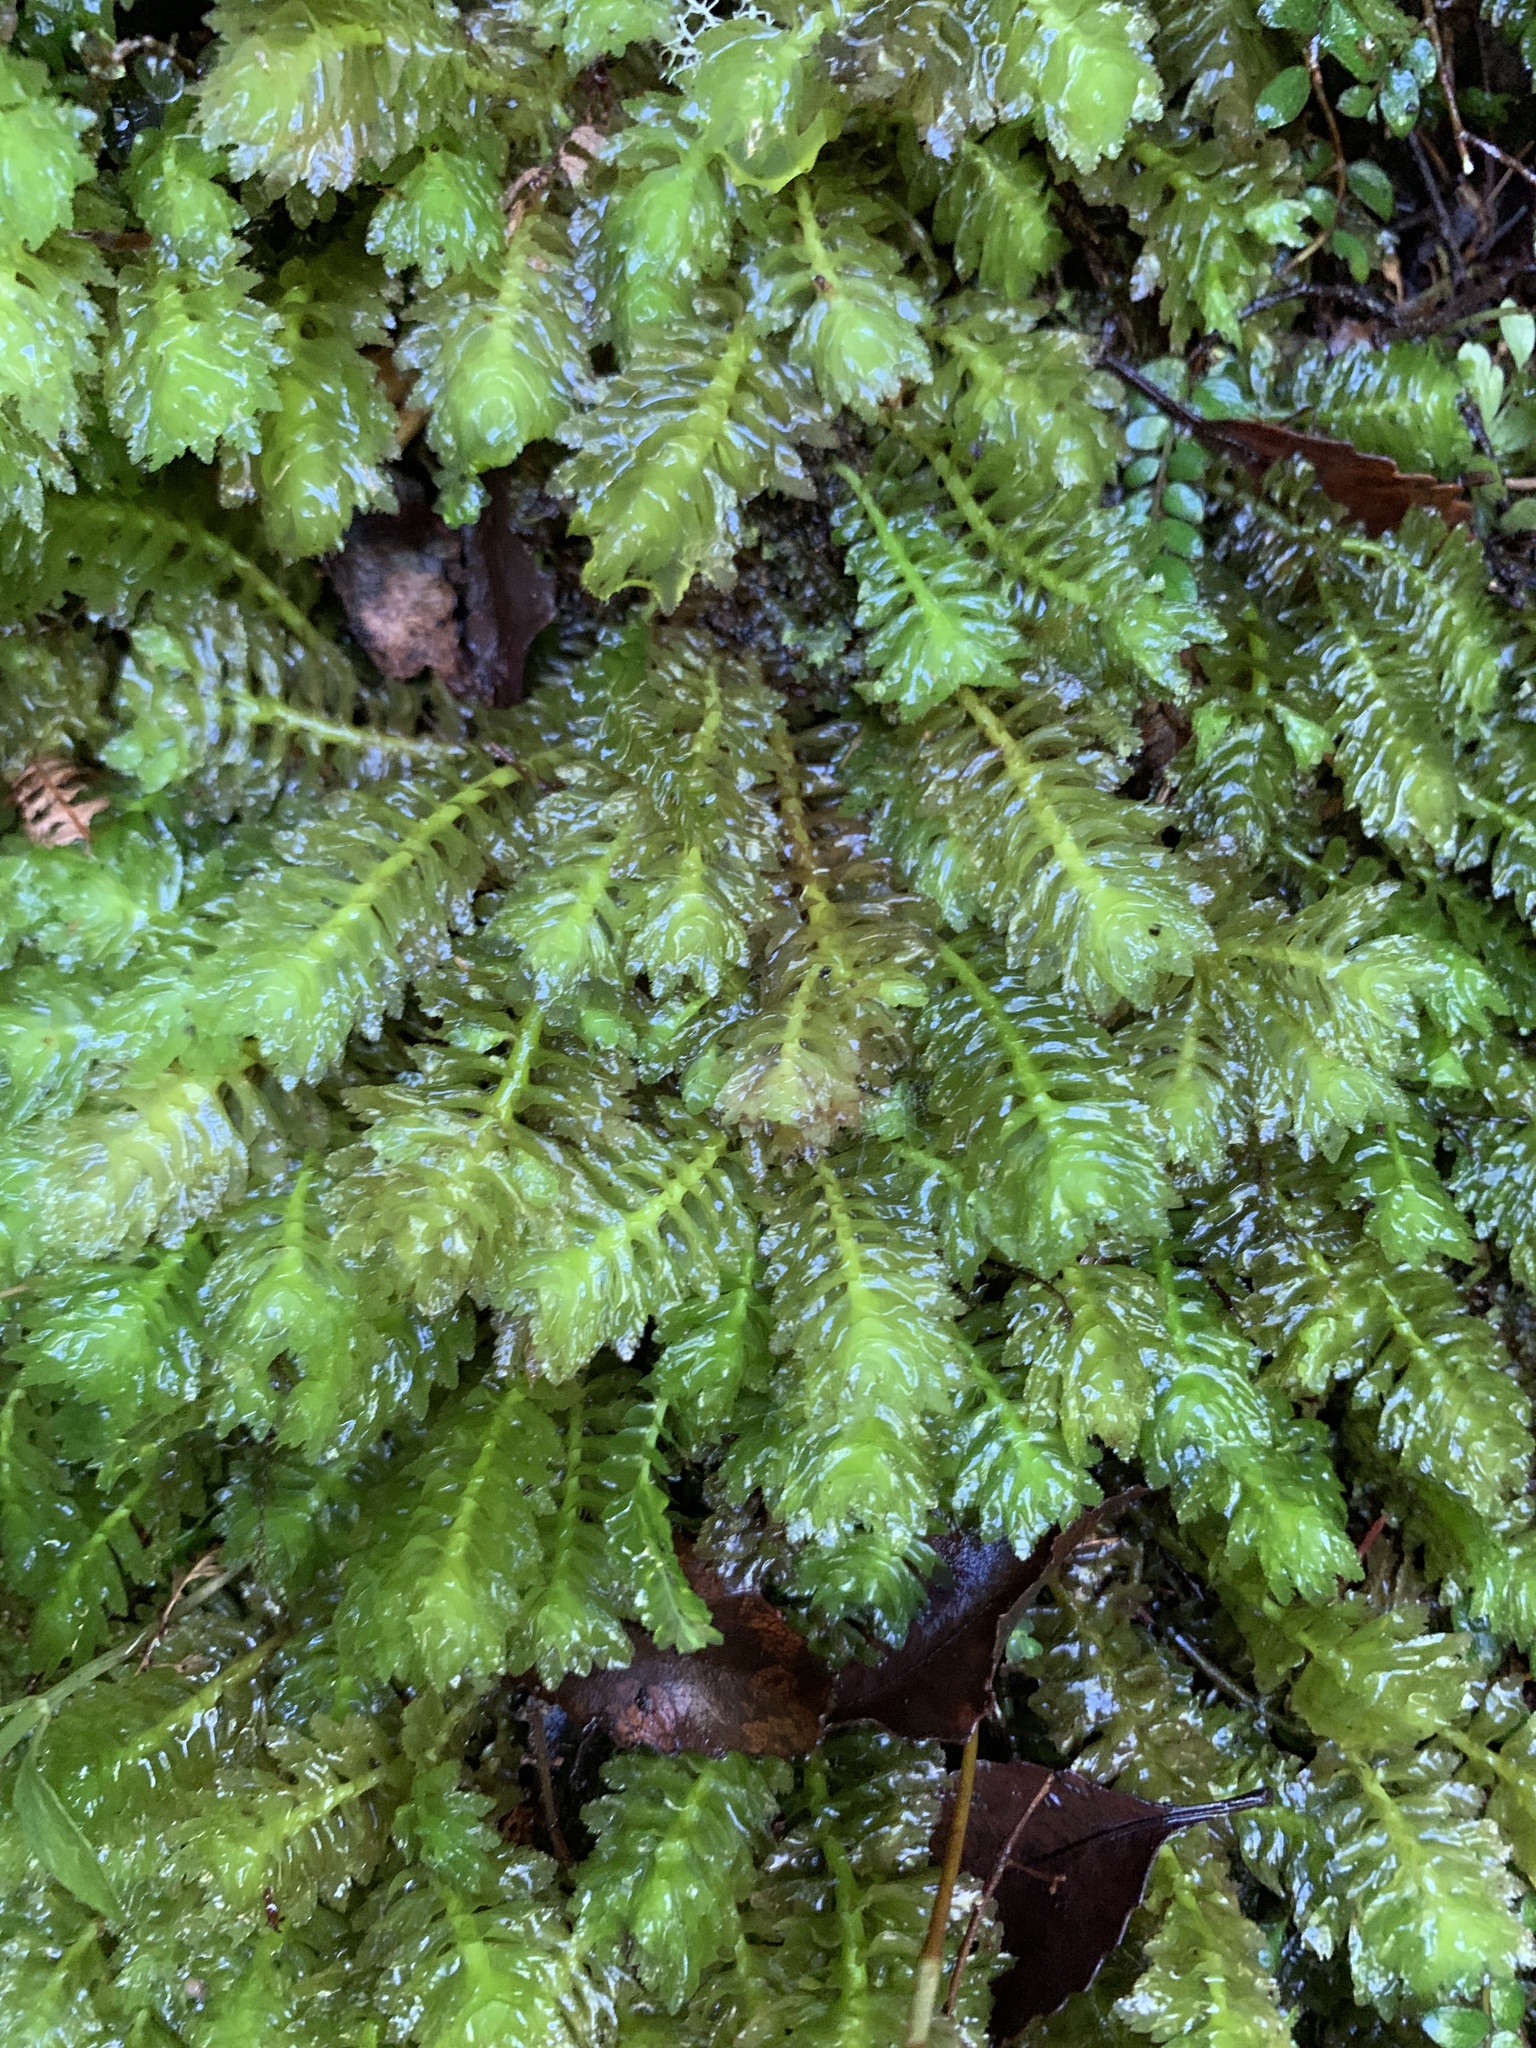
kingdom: Plantae
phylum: Marchantiophyta
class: Jungermanniopsida
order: Jungermanniales
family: Schistochilaceae
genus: Schistochila
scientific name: Schistochila appendiculata
